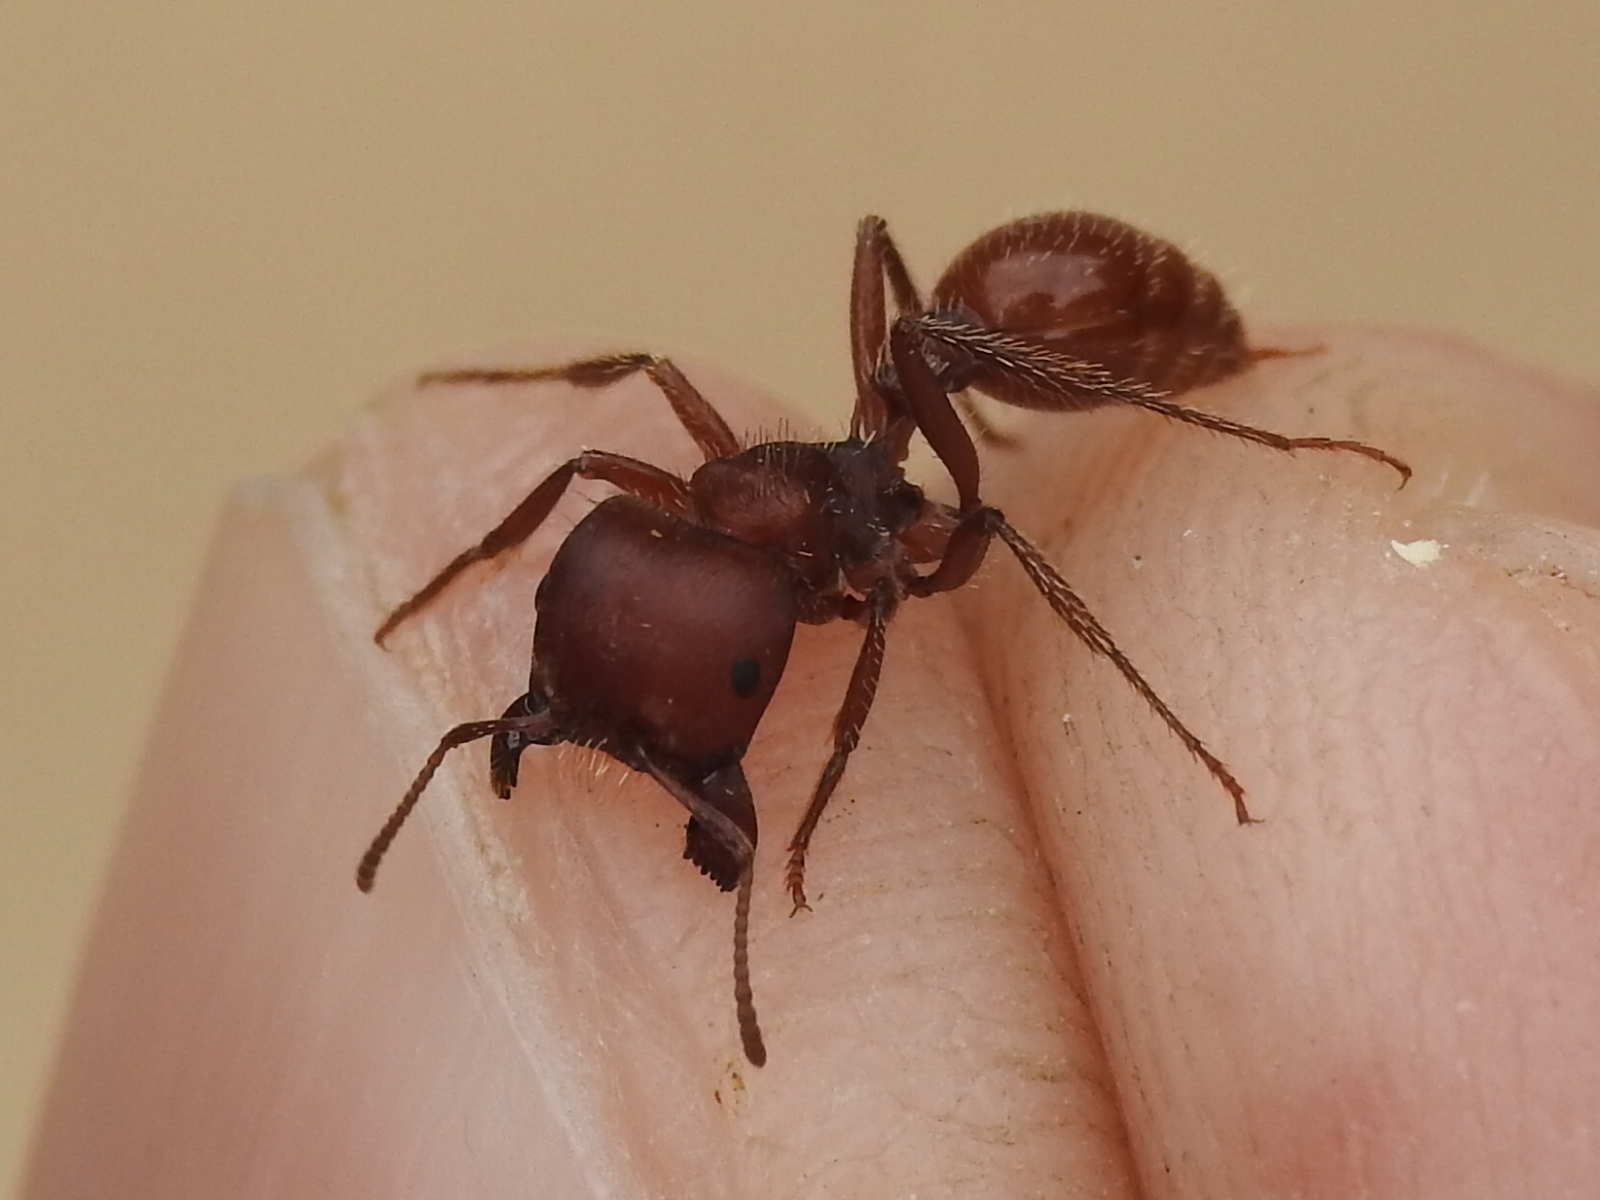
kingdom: Animalia
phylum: Arthropoda
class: Insecta
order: Hymenoptera
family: Formicidae
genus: Pogonomyrmex
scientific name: Pogonomyrmex barbatus
